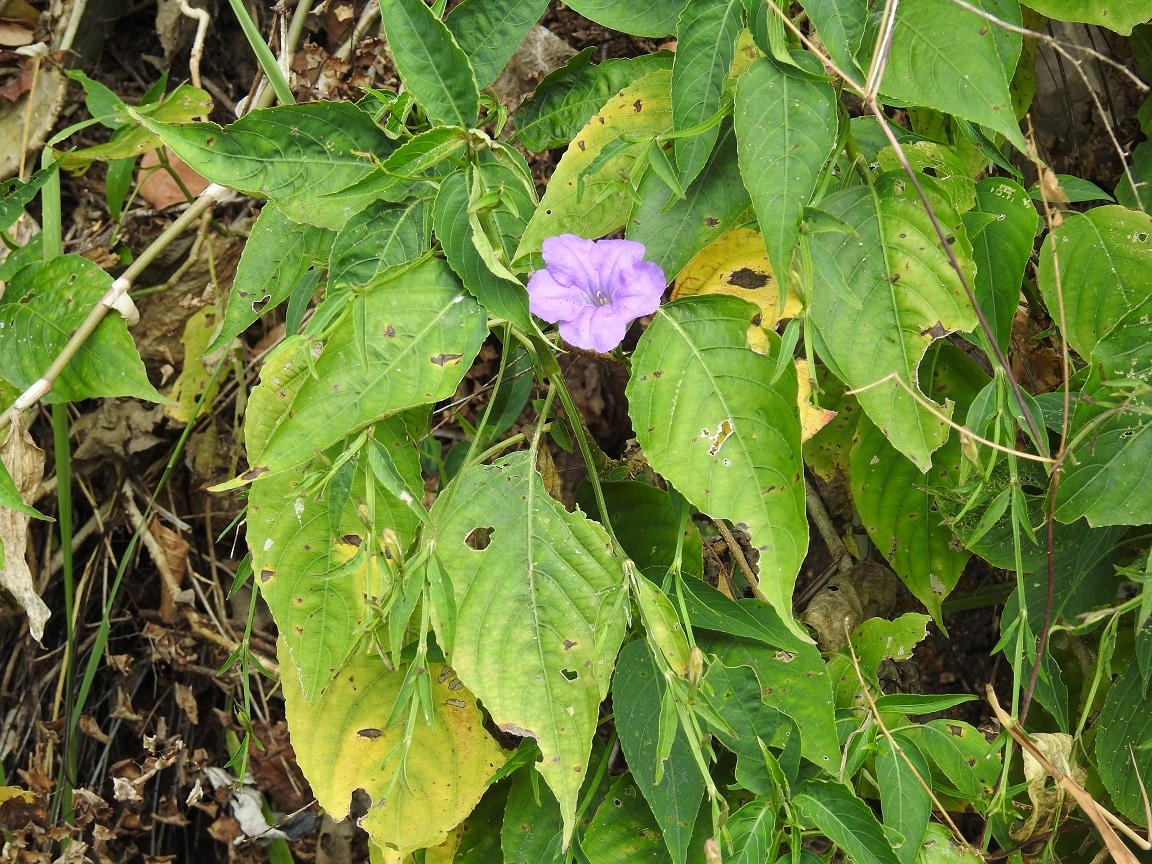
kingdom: Plantae
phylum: Tracheophyta
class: Magnoliopsida
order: Lamiales
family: Acanthaceae
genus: Ruellia
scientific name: Ruellia breedlovei
